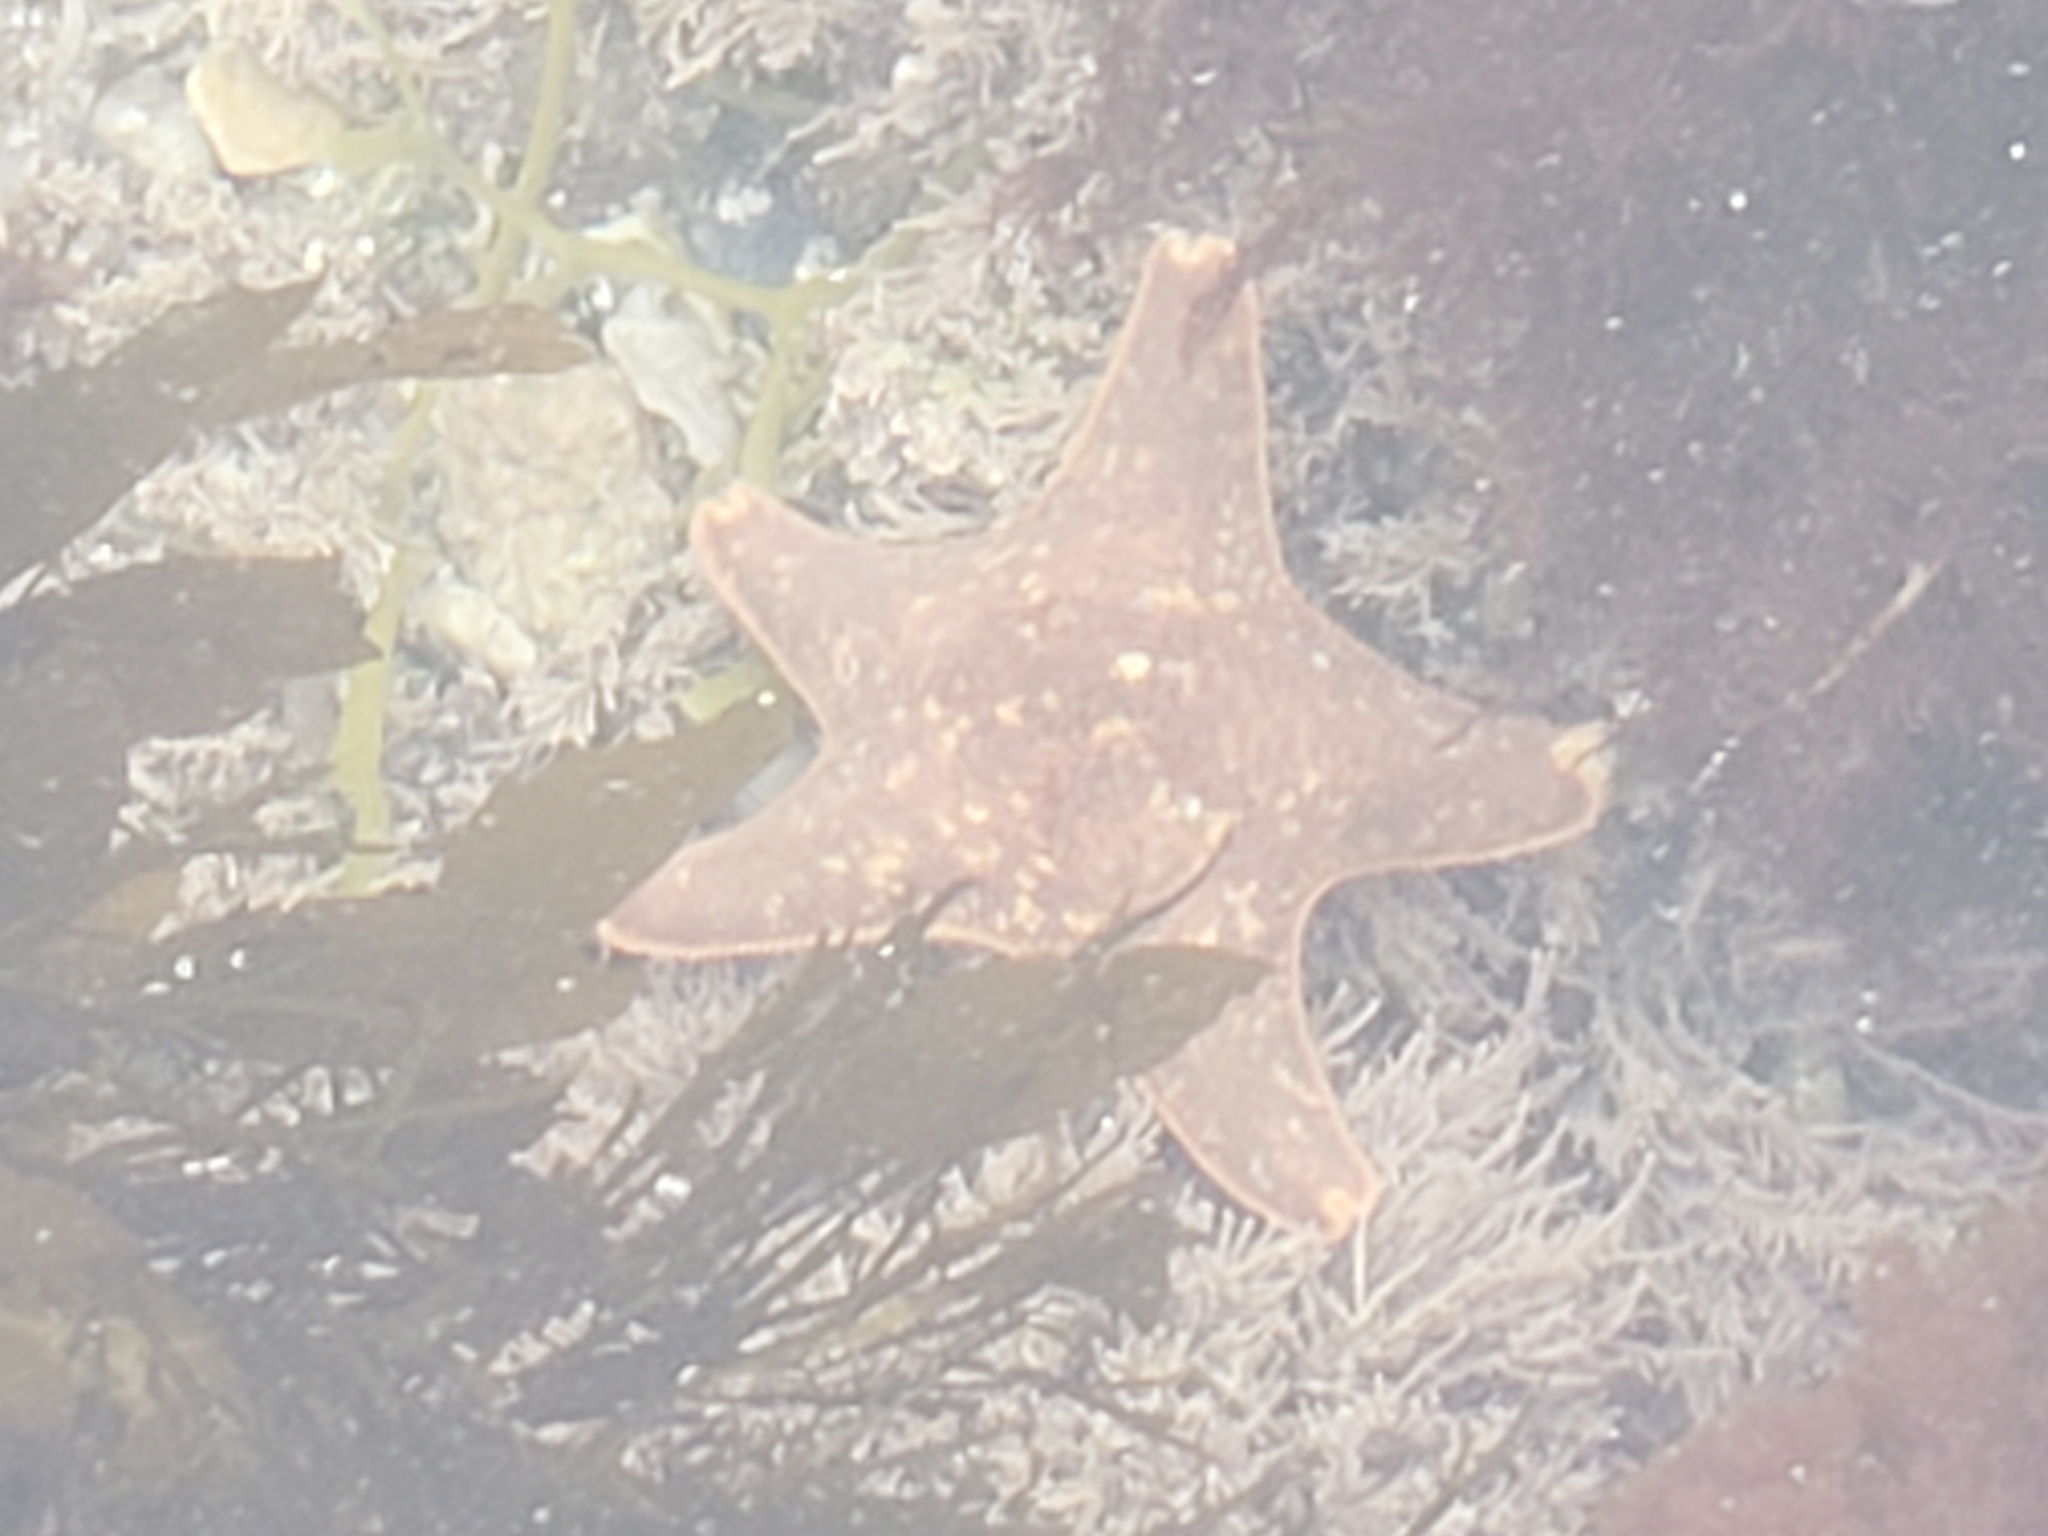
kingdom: Animalia
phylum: Echinodermata
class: Asteroidea
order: Valvatida
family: Asterinidae
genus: Patiria
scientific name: Patiria miniata
